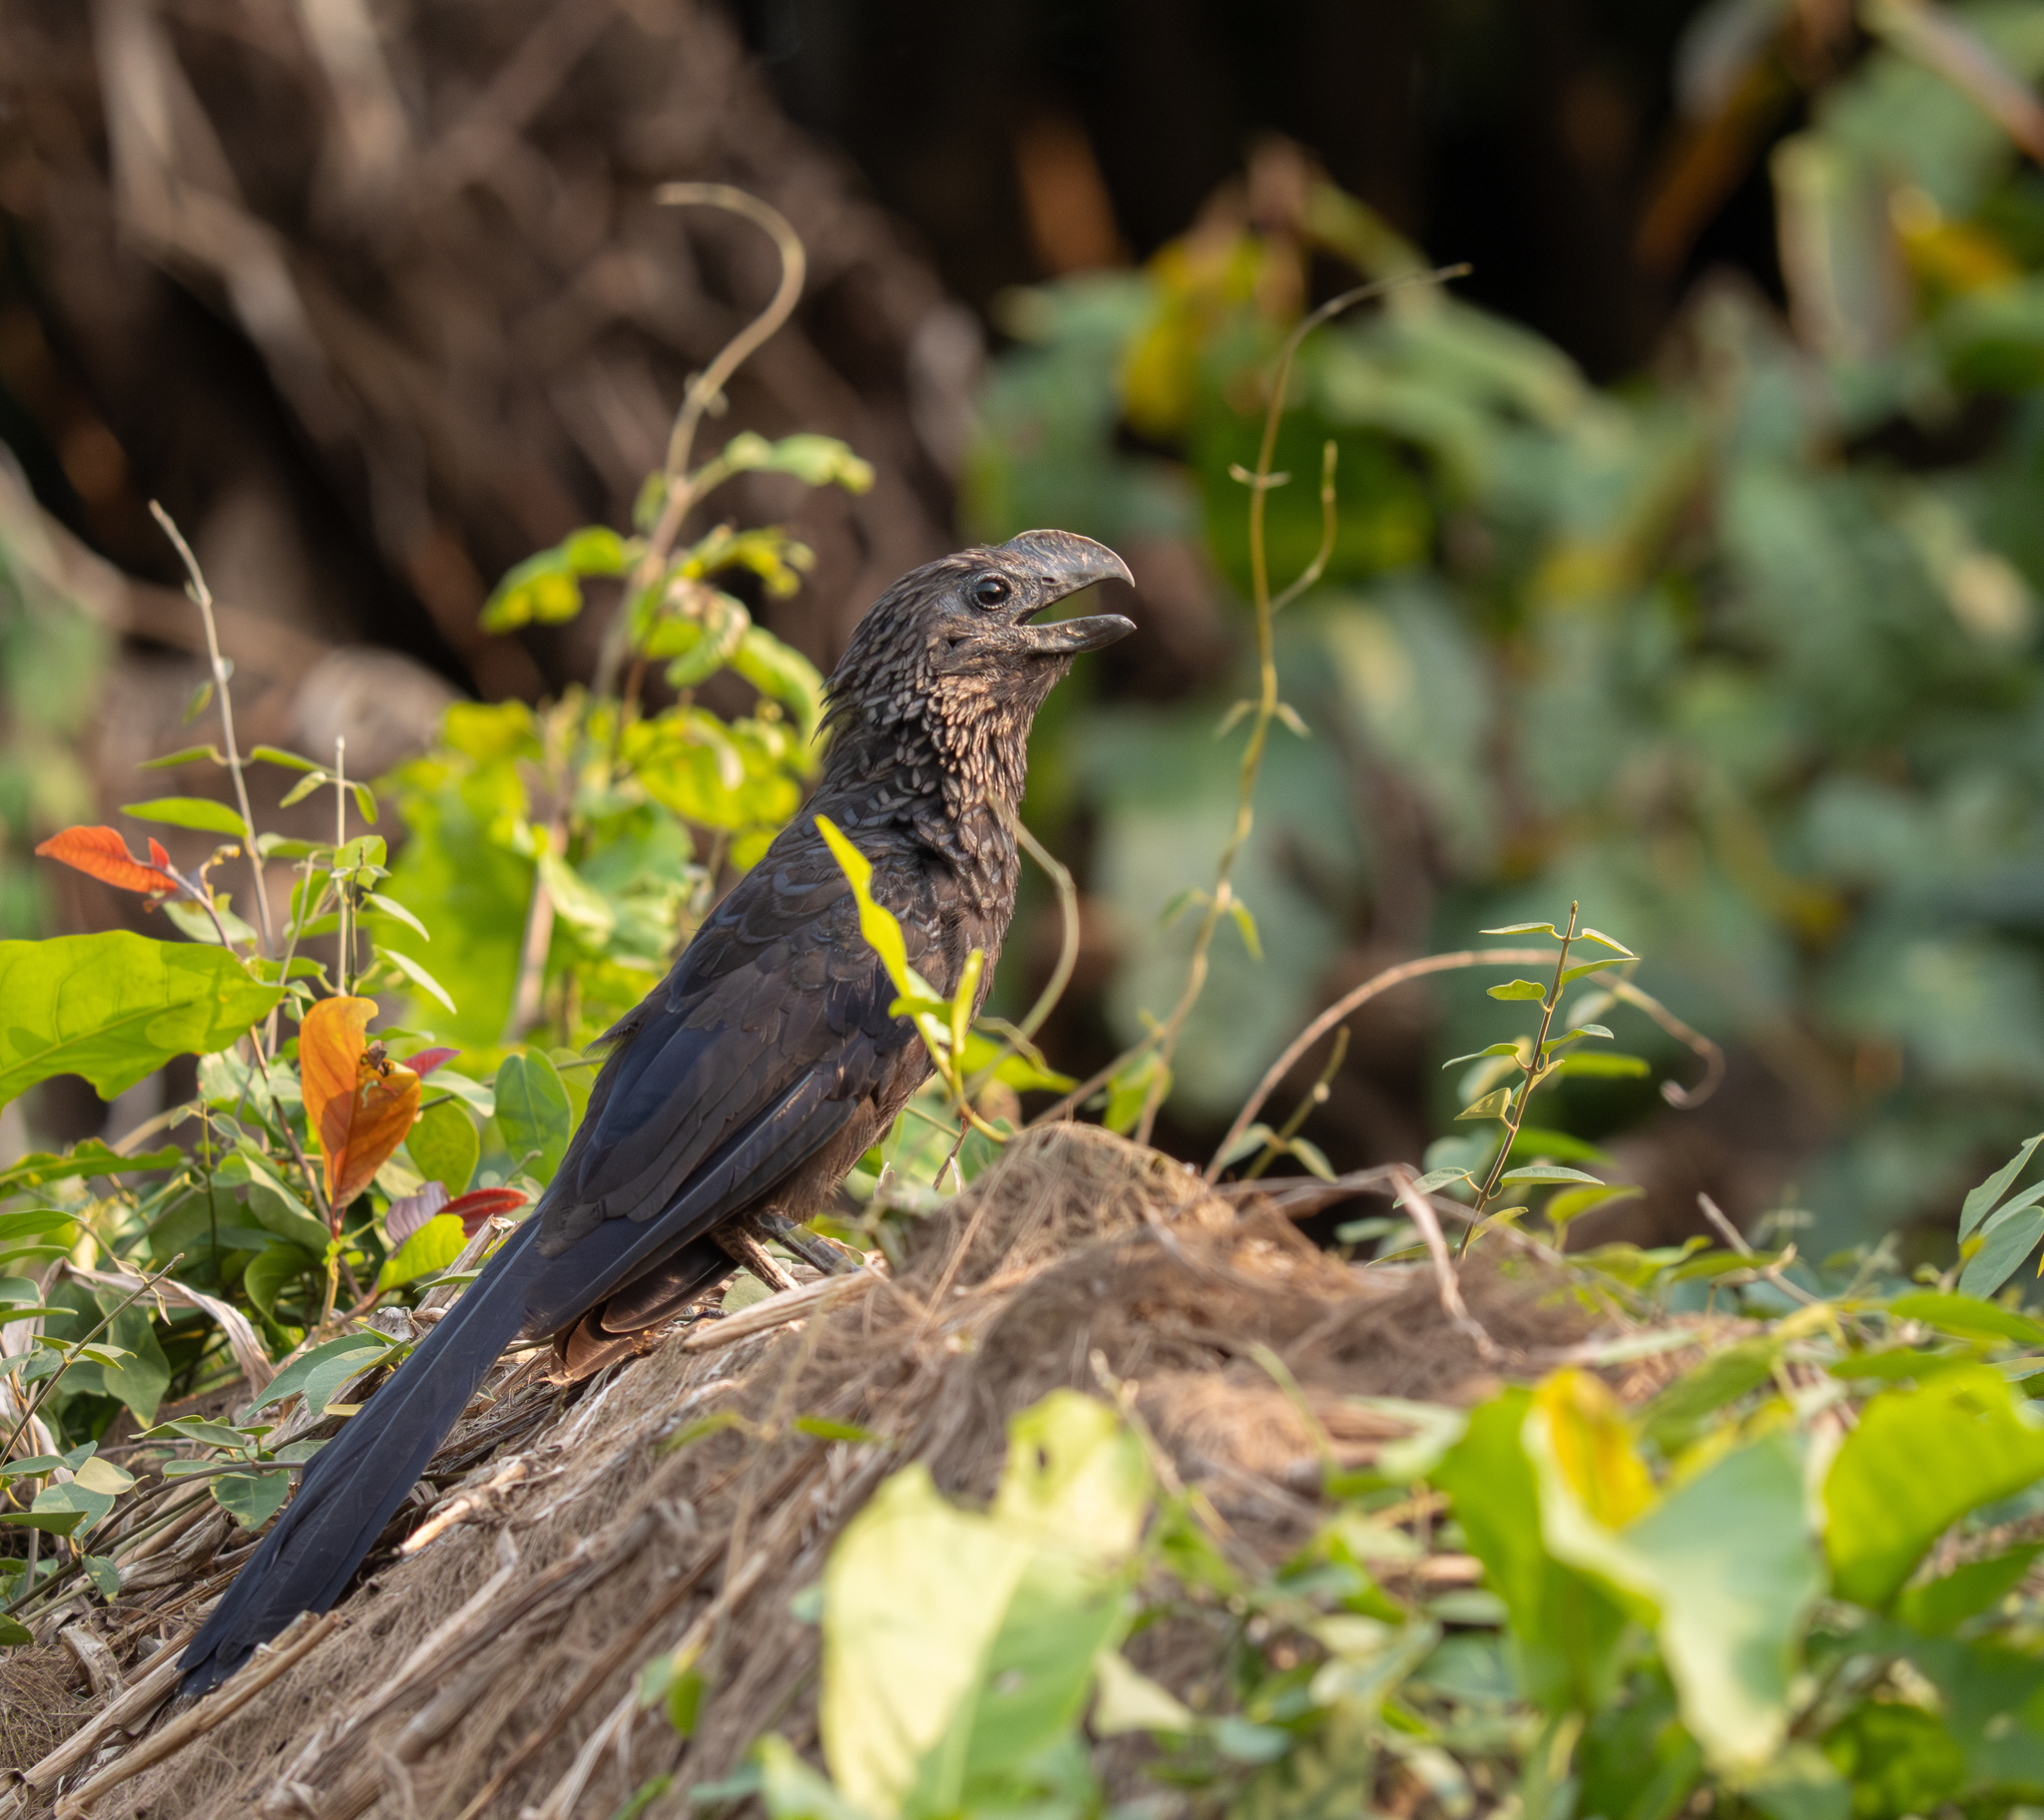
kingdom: Animalia
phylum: Chordata
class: Aves
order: Cuculiformes
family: Cuculidae
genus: Crotophaga
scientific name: Crotophaga ani
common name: Smooth-billed ani
